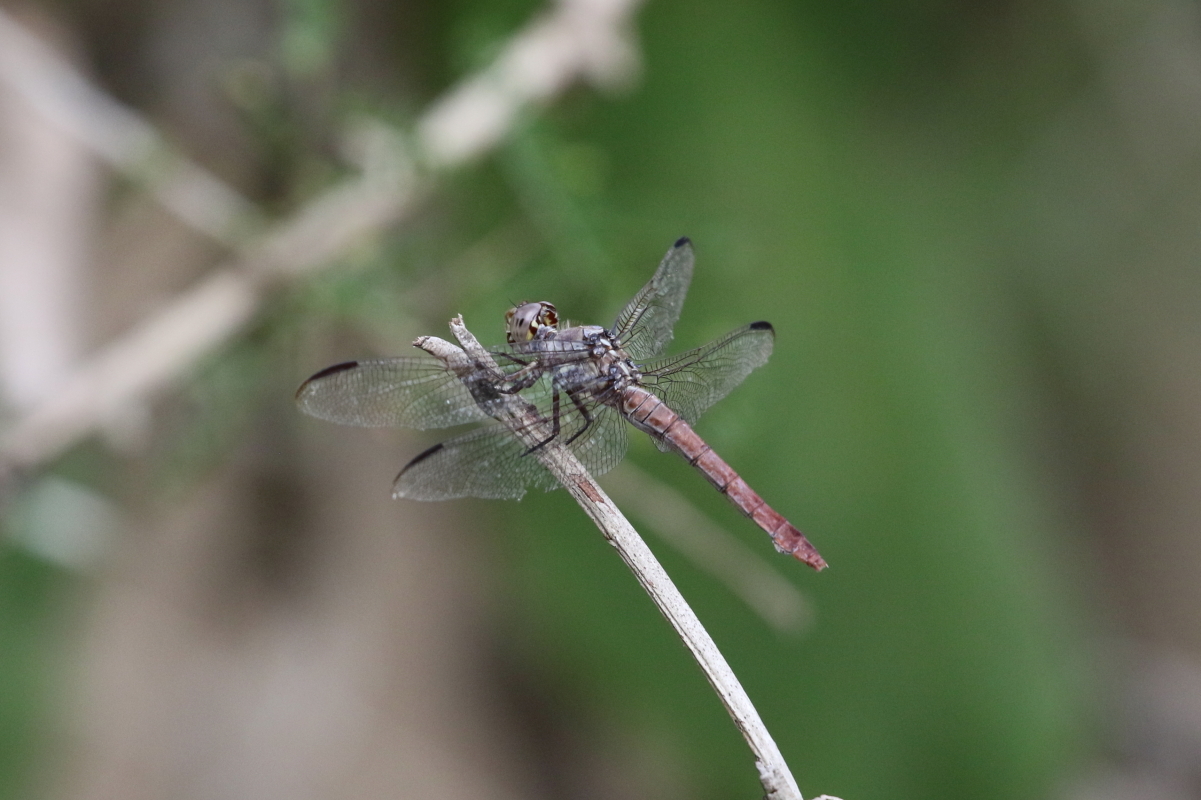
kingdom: Animalia
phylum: Arthropoda
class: Insecta
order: Odonata
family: Libellulidae
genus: Orthemis
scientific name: Orthemis ferruginea
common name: Roseate skimmer
